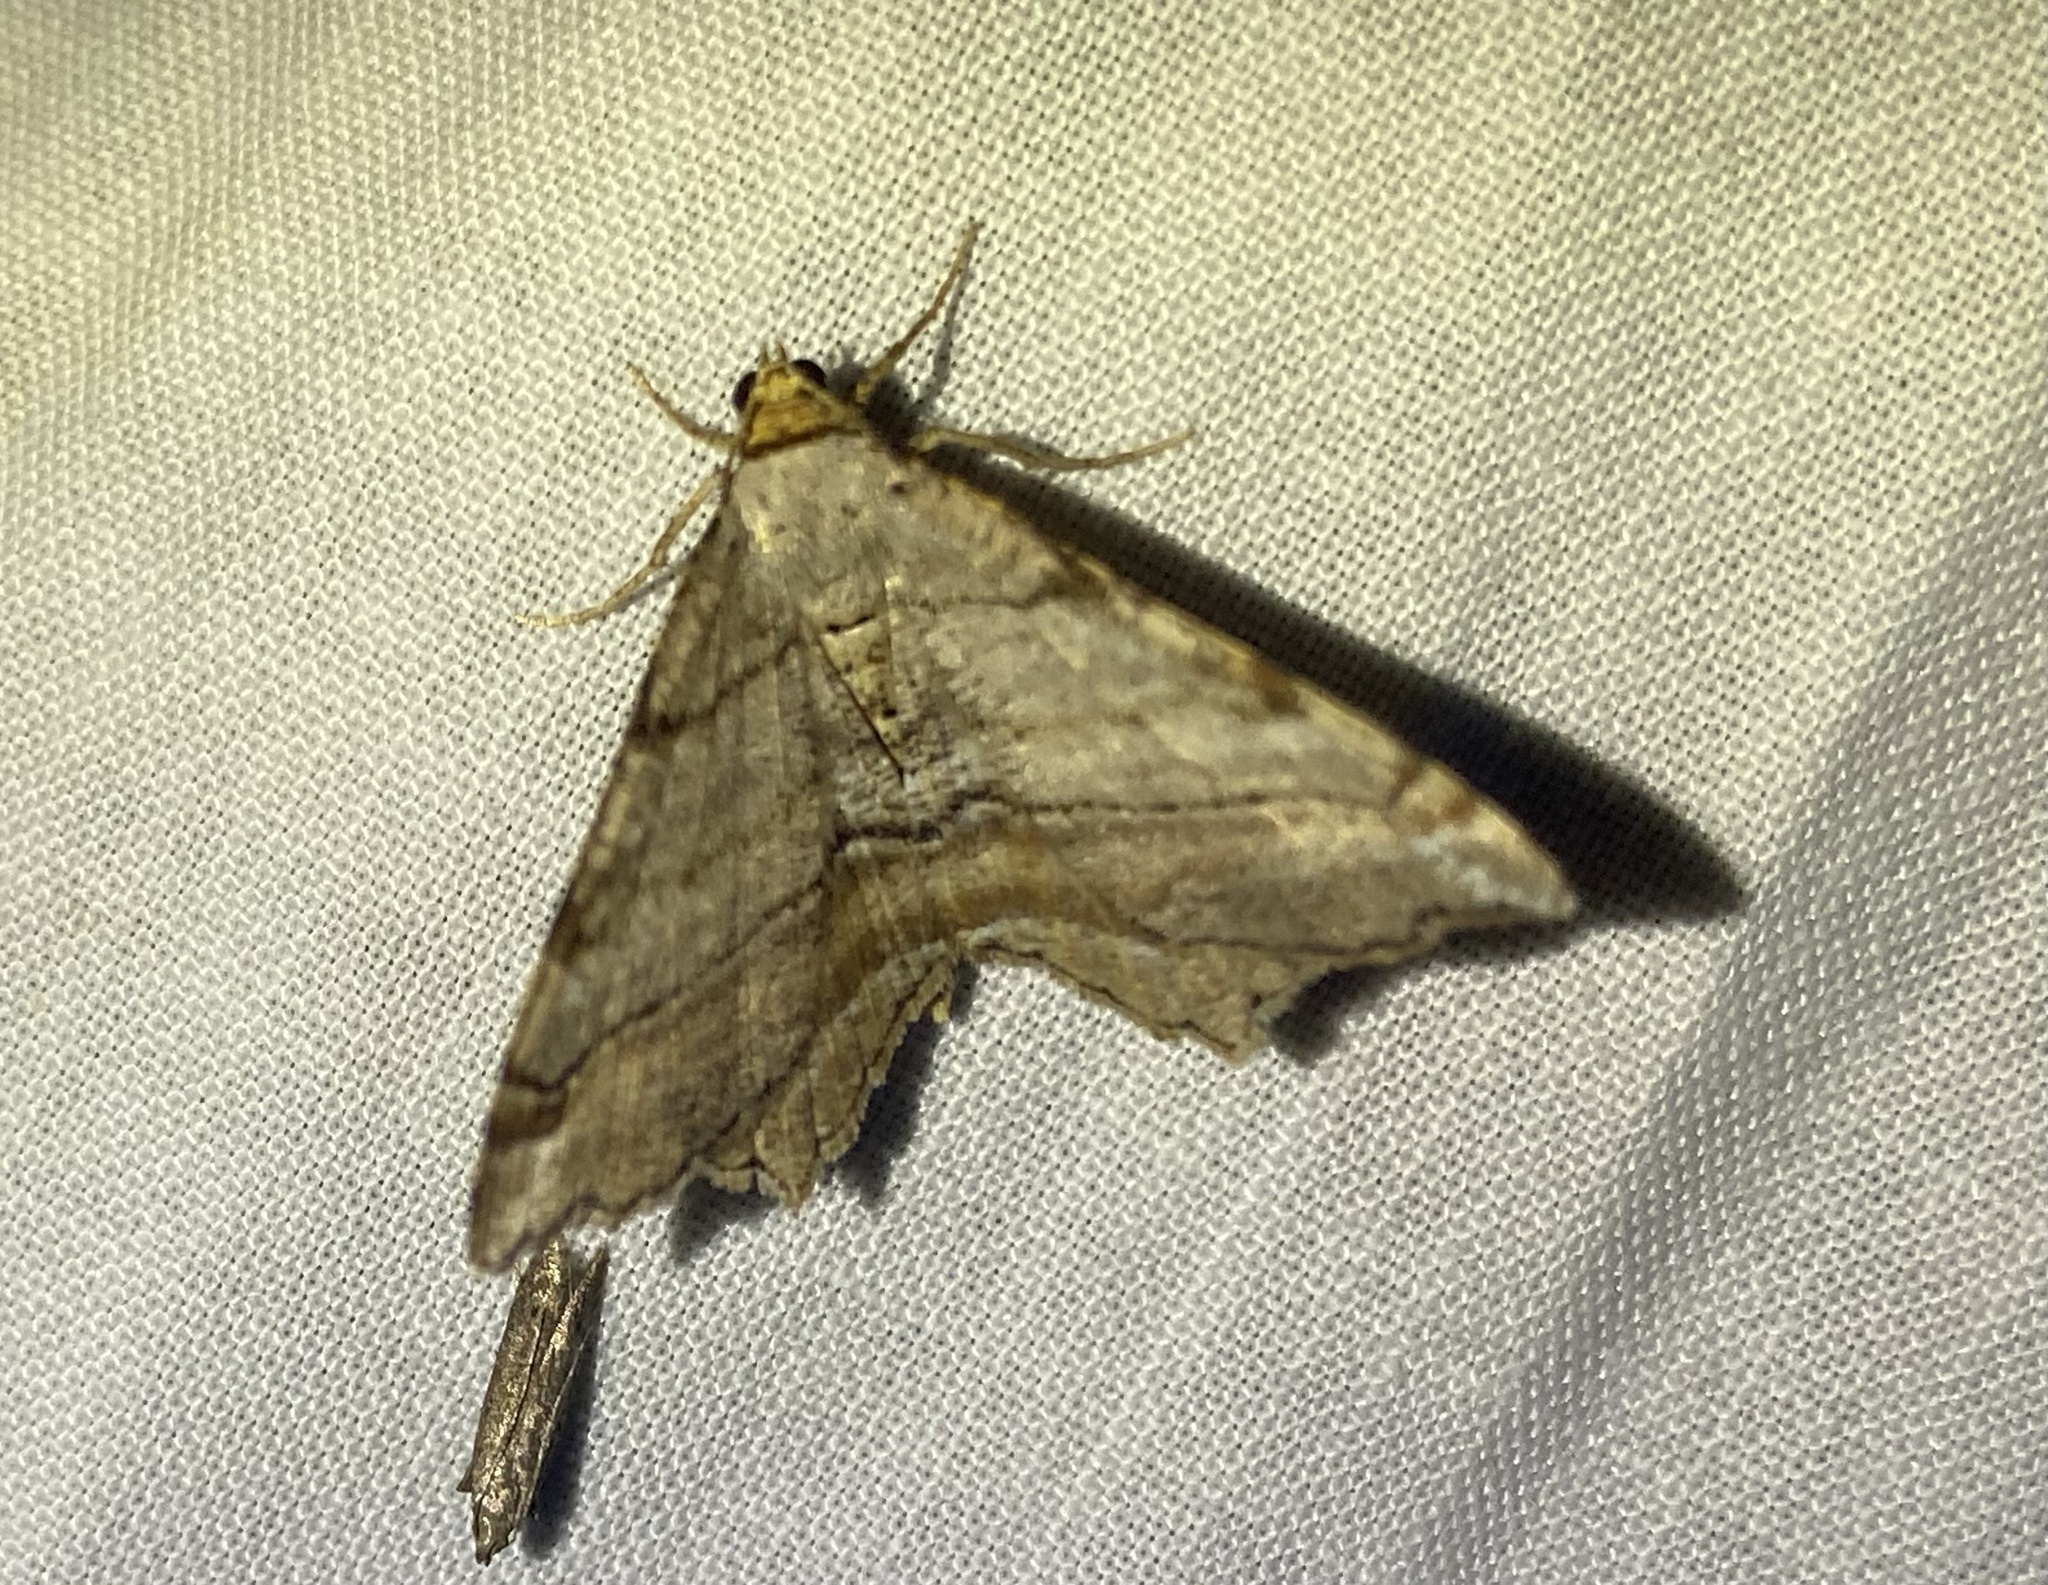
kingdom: Animalia
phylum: Arthropoda
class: Insecta
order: Lepidoptera
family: Geometridae
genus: Macaria
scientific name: Macaria multilineata
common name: Many-lined angle
